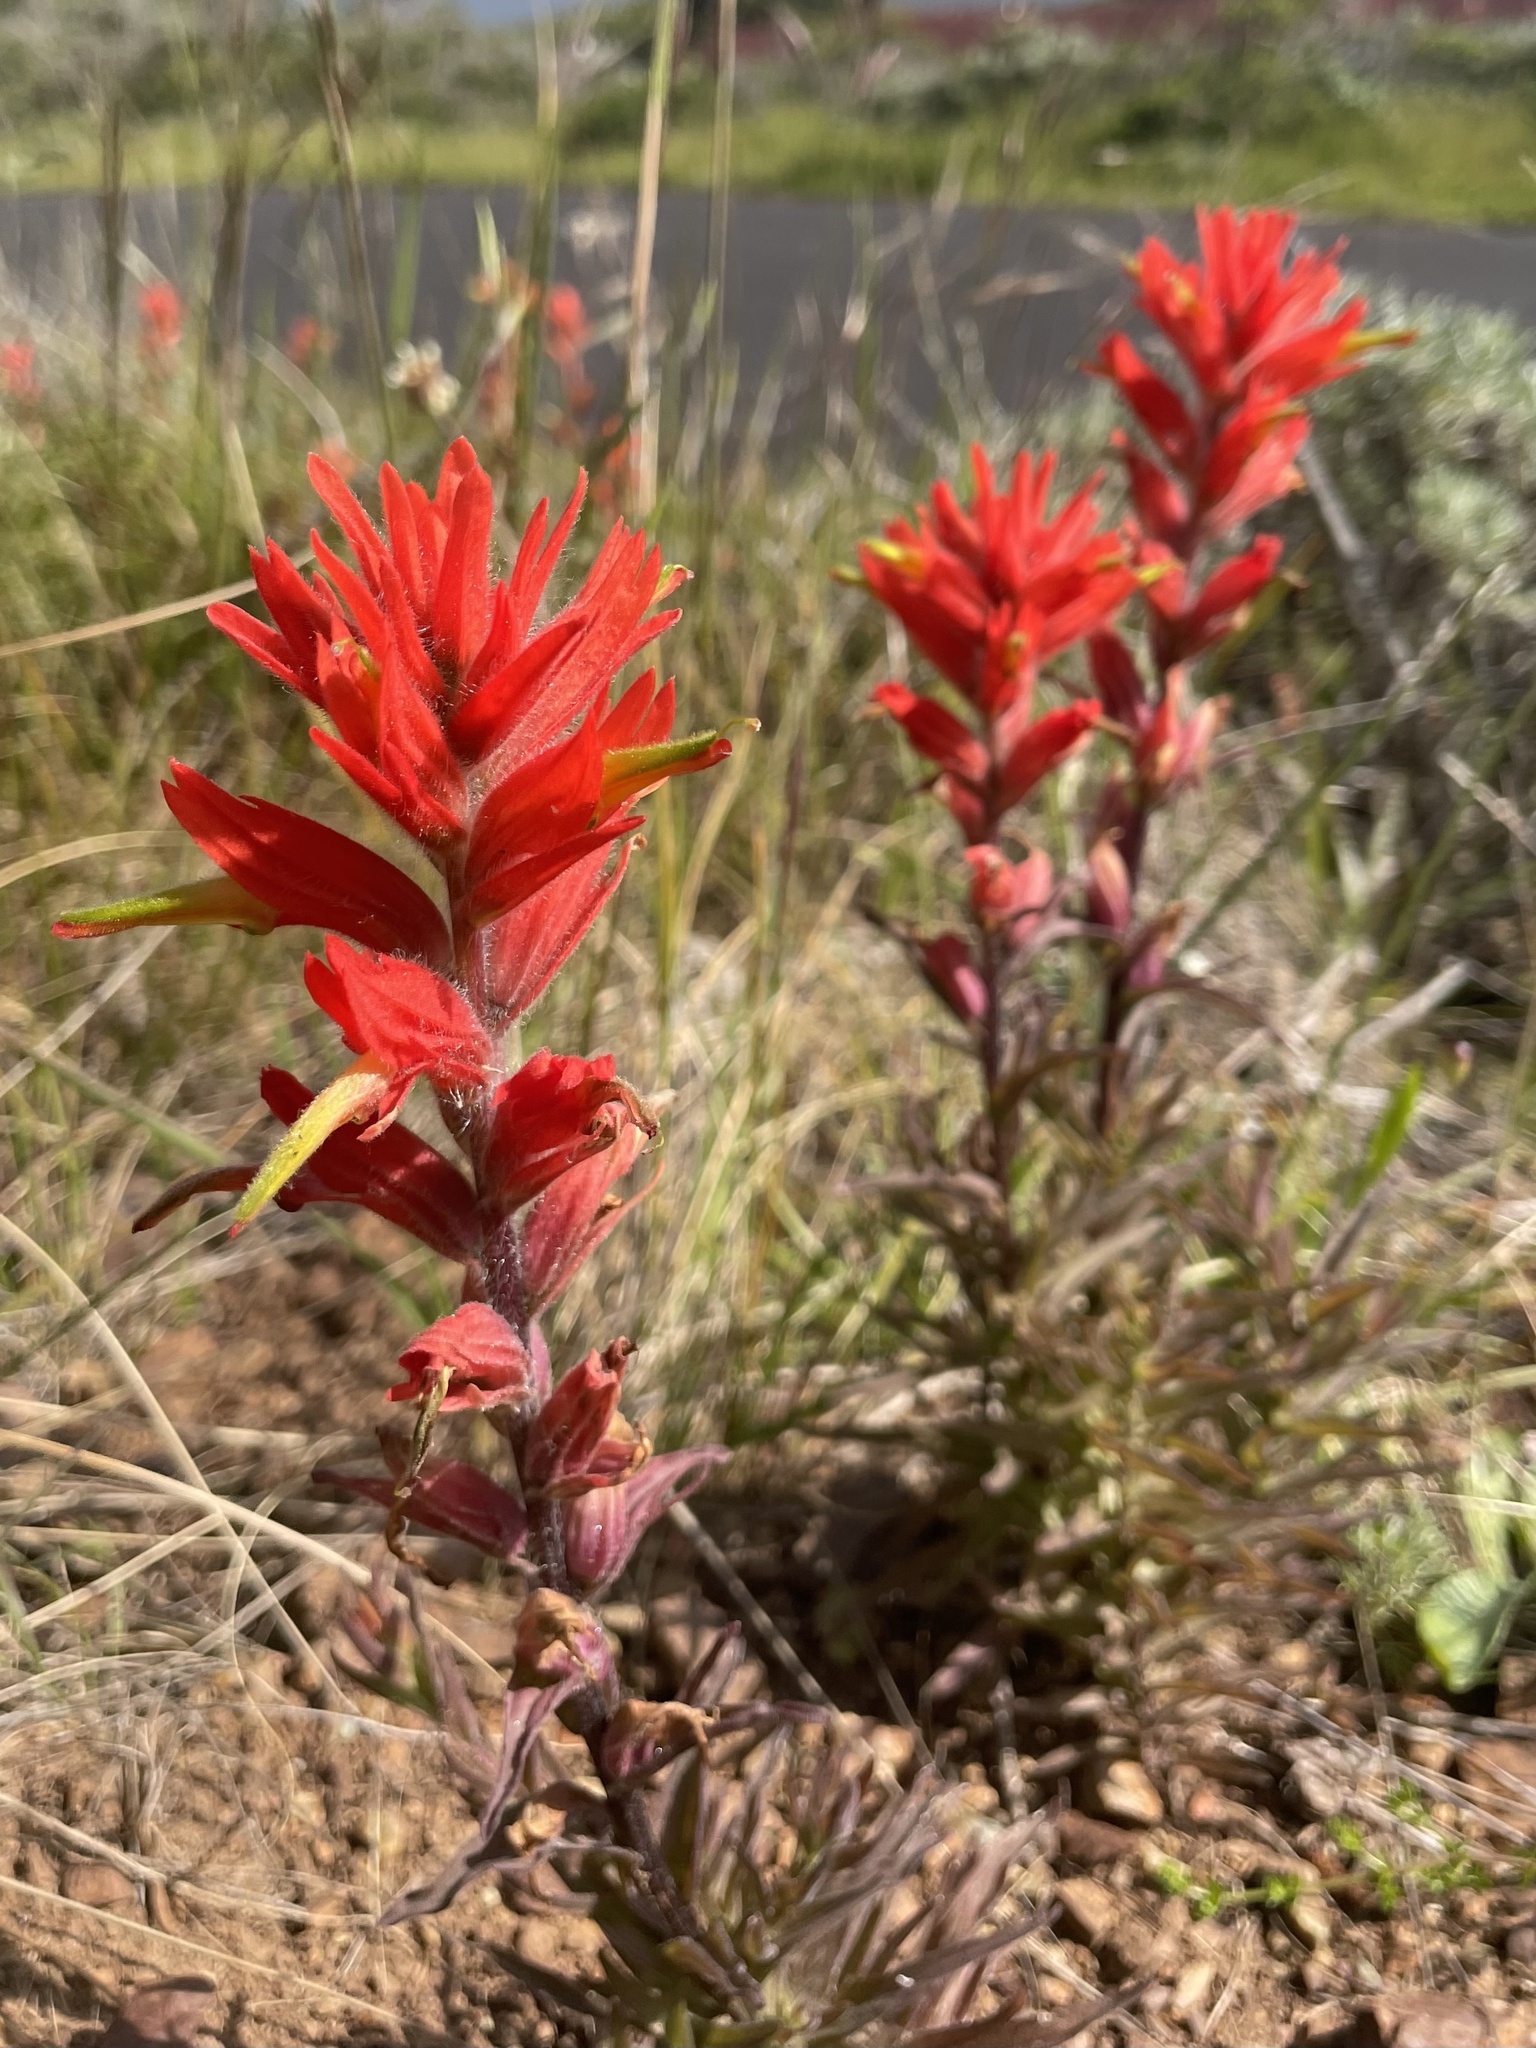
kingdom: Plantae
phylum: Tracheophyta
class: Magnoliopsida
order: Lamiales
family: Orobanchaceae
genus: Castilleja
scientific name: Castilleja subinclusa
